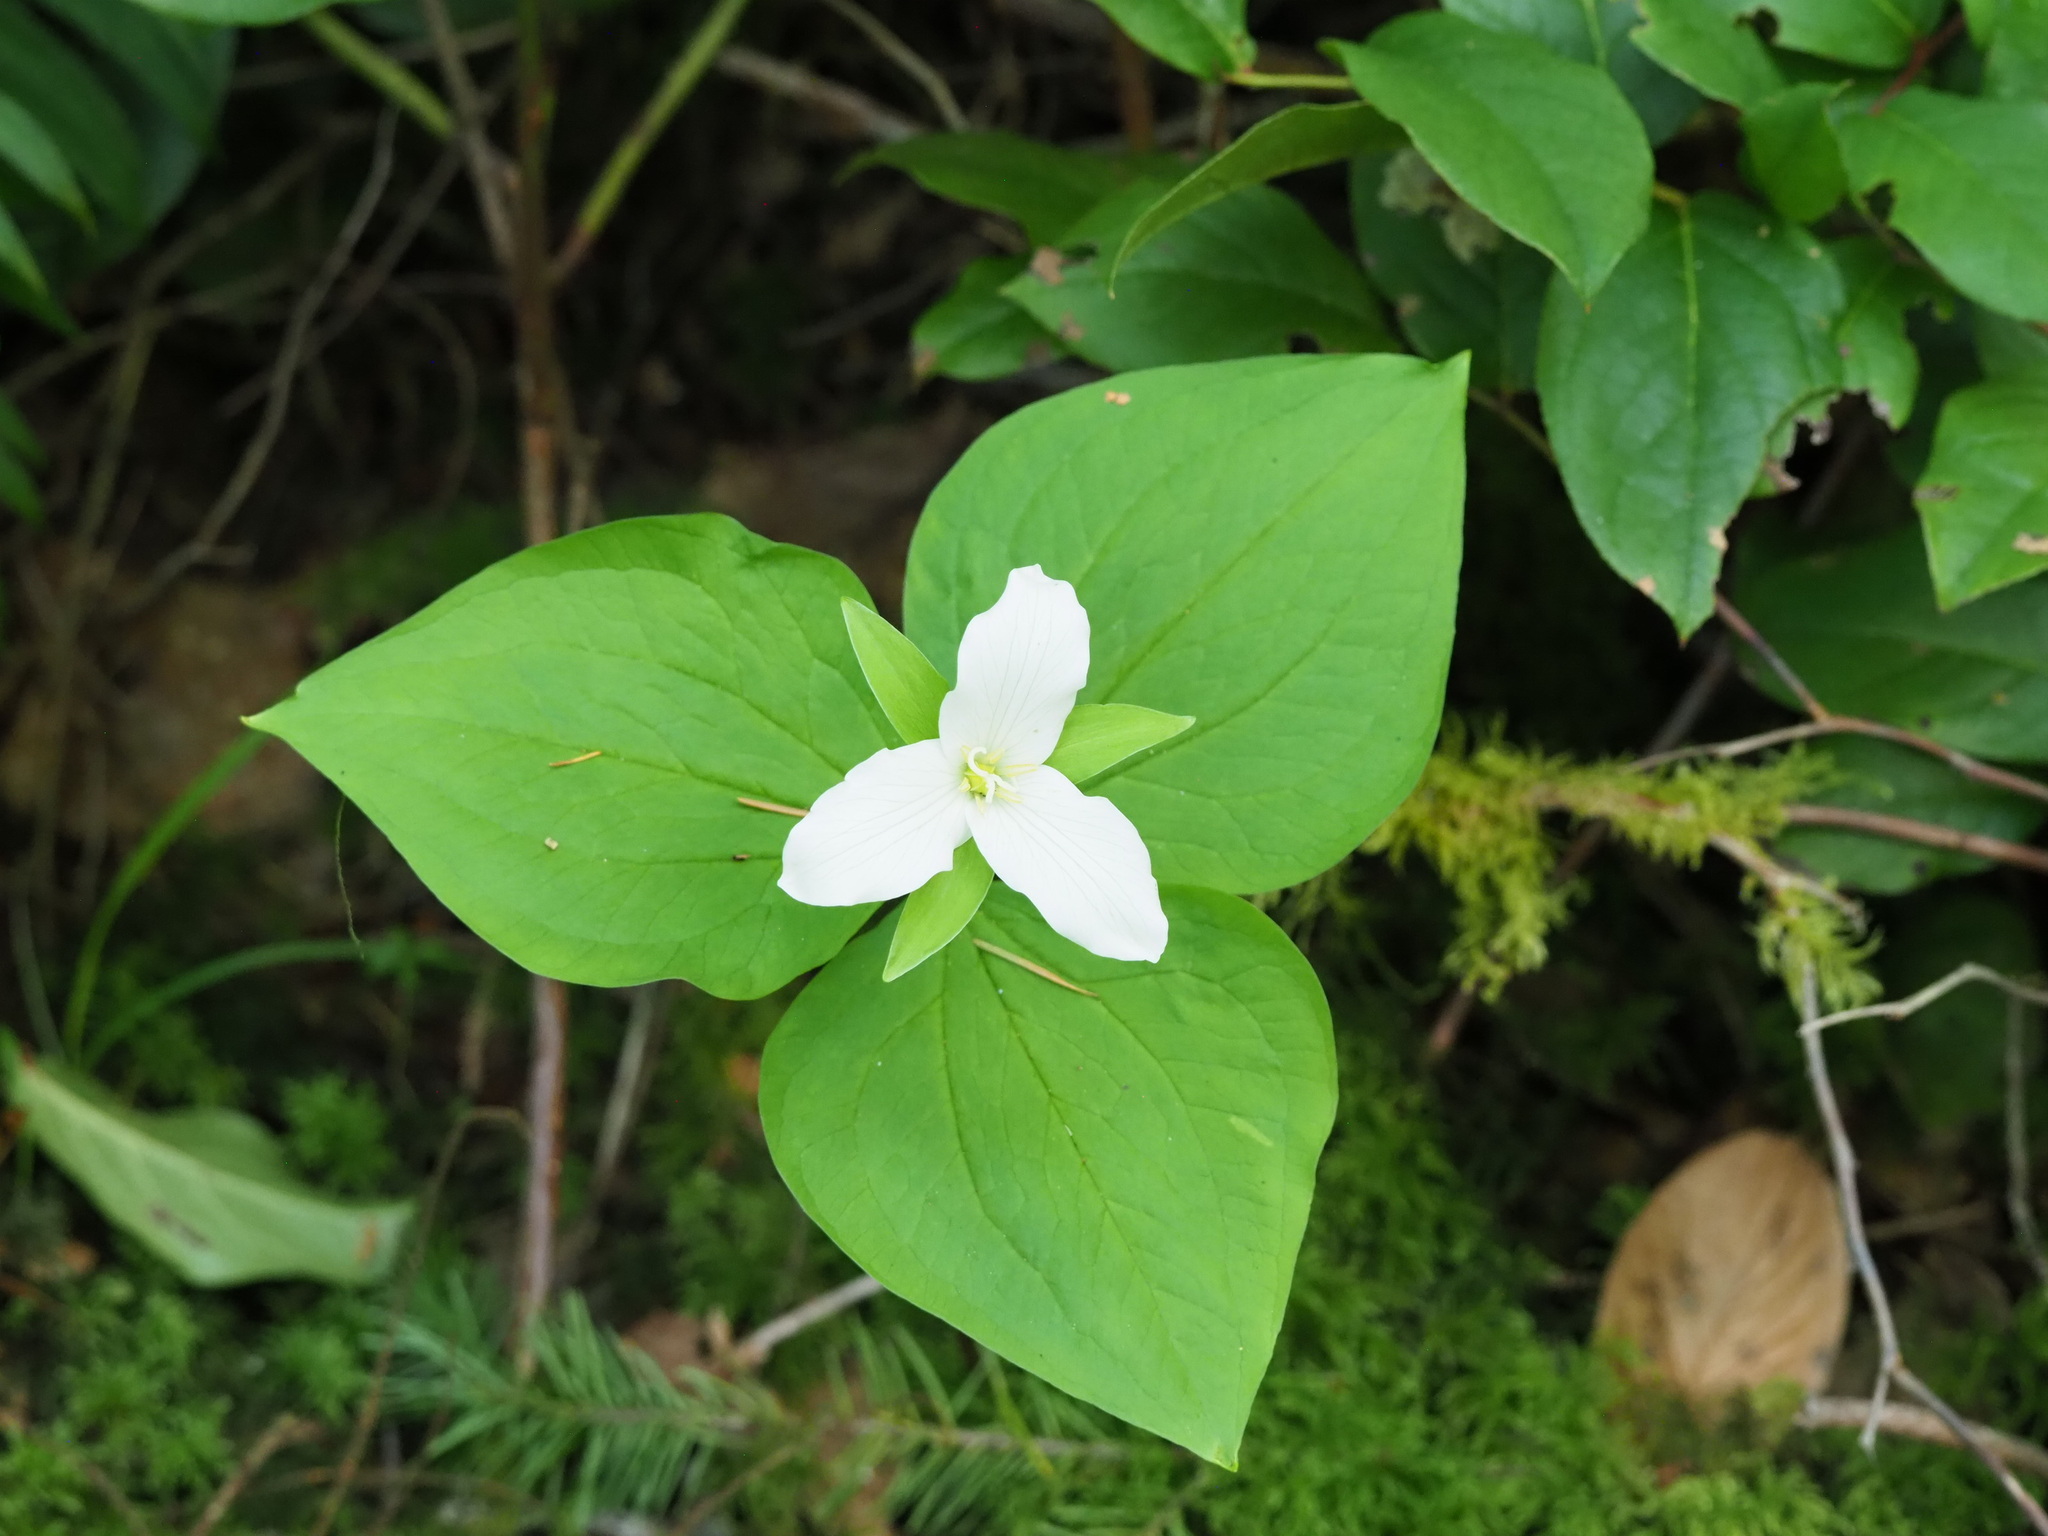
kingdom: Plantae
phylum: Tracheophyta
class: Liliopsida
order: Liliales
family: Melanthiaceae
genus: Trillium
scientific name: Trillium ovatum
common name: Pacific trillium
